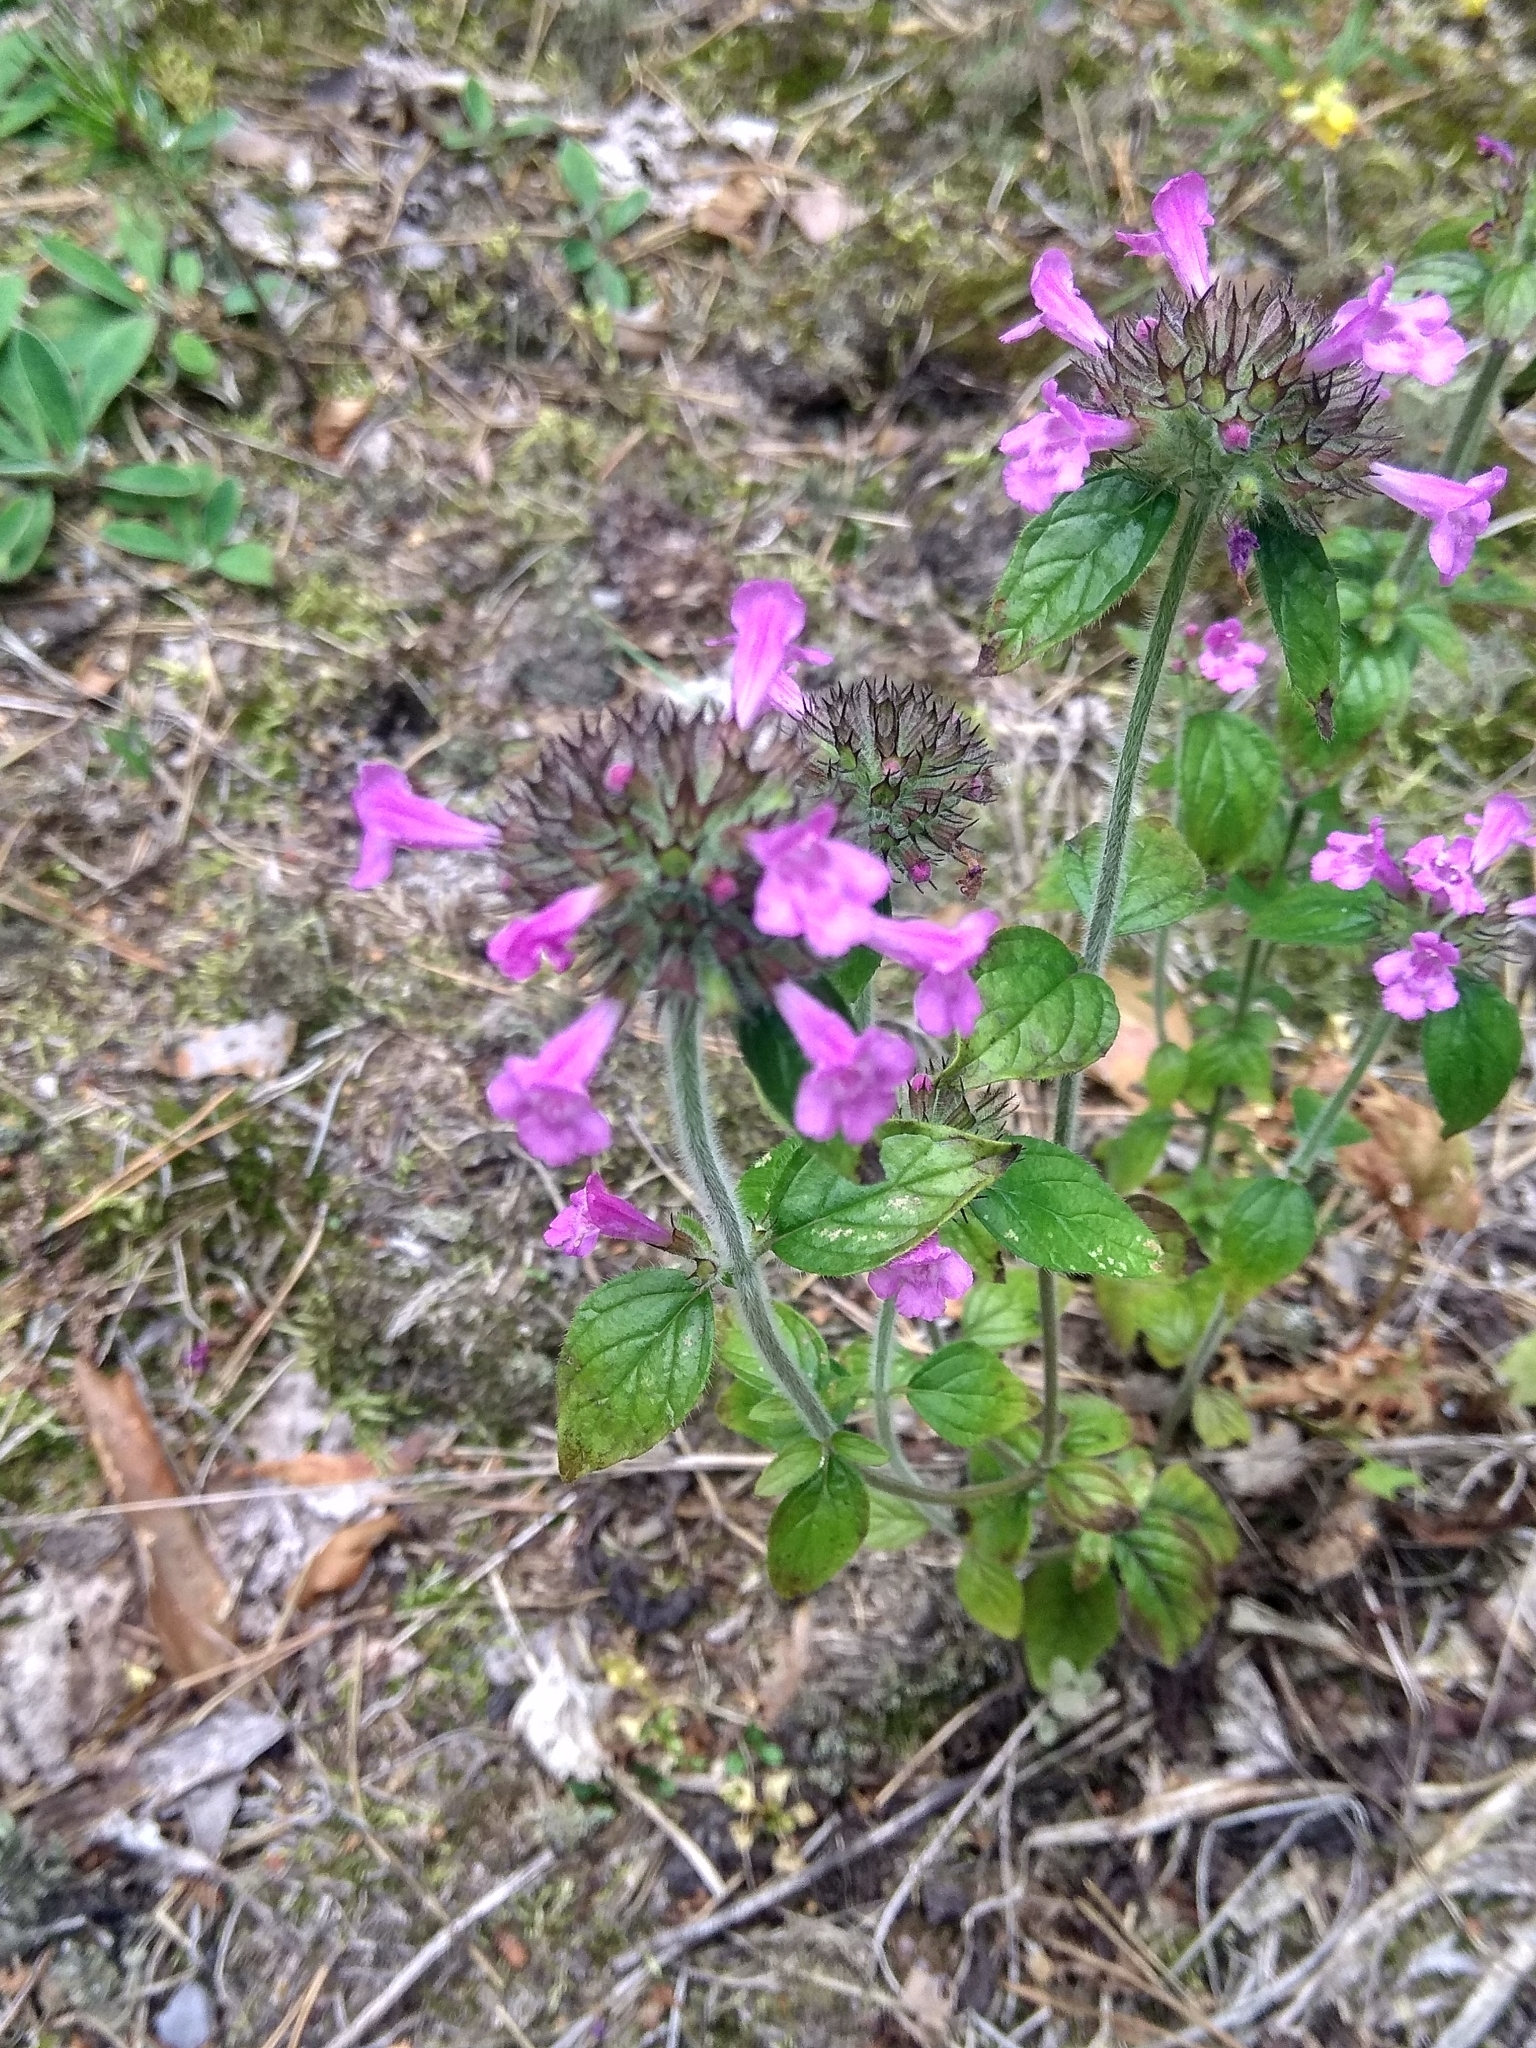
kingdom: Plantae
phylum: Tracheophyta
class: Magnoliopsida
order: Lamiales
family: Lamiaceae
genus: Clinopodium
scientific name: Clinopodium vulgare
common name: Wild basil
